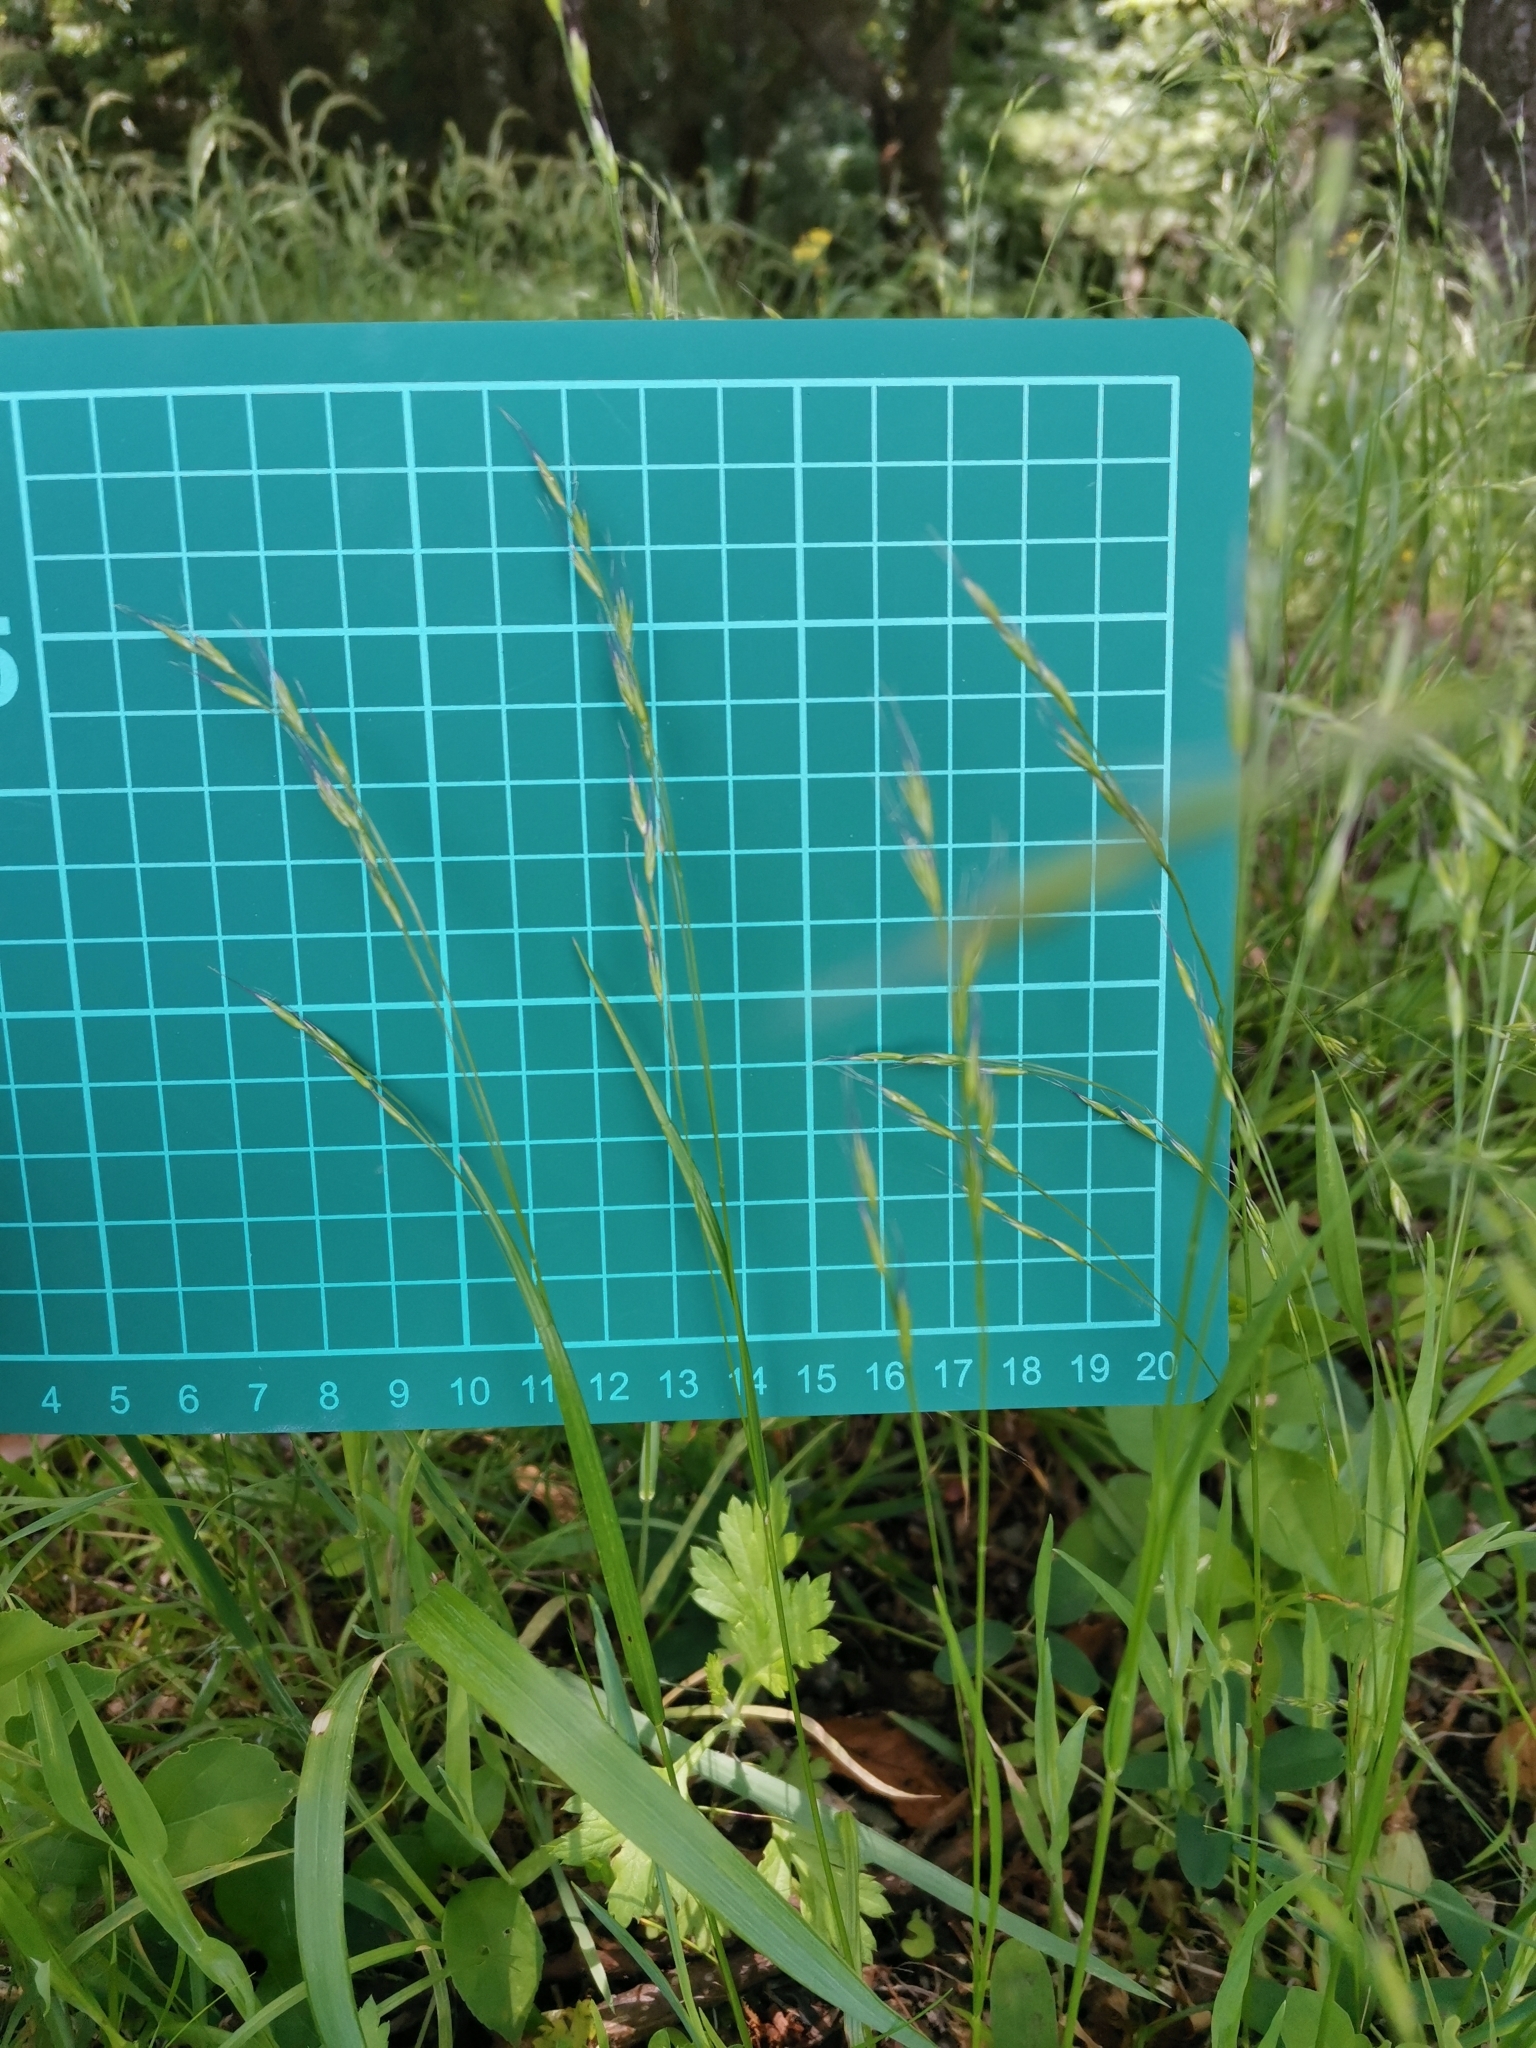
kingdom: Plantae
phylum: Tracheophyta
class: Liliopsida
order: Poales
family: Poaceae
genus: Festuca
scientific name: Festuca parvigluma
